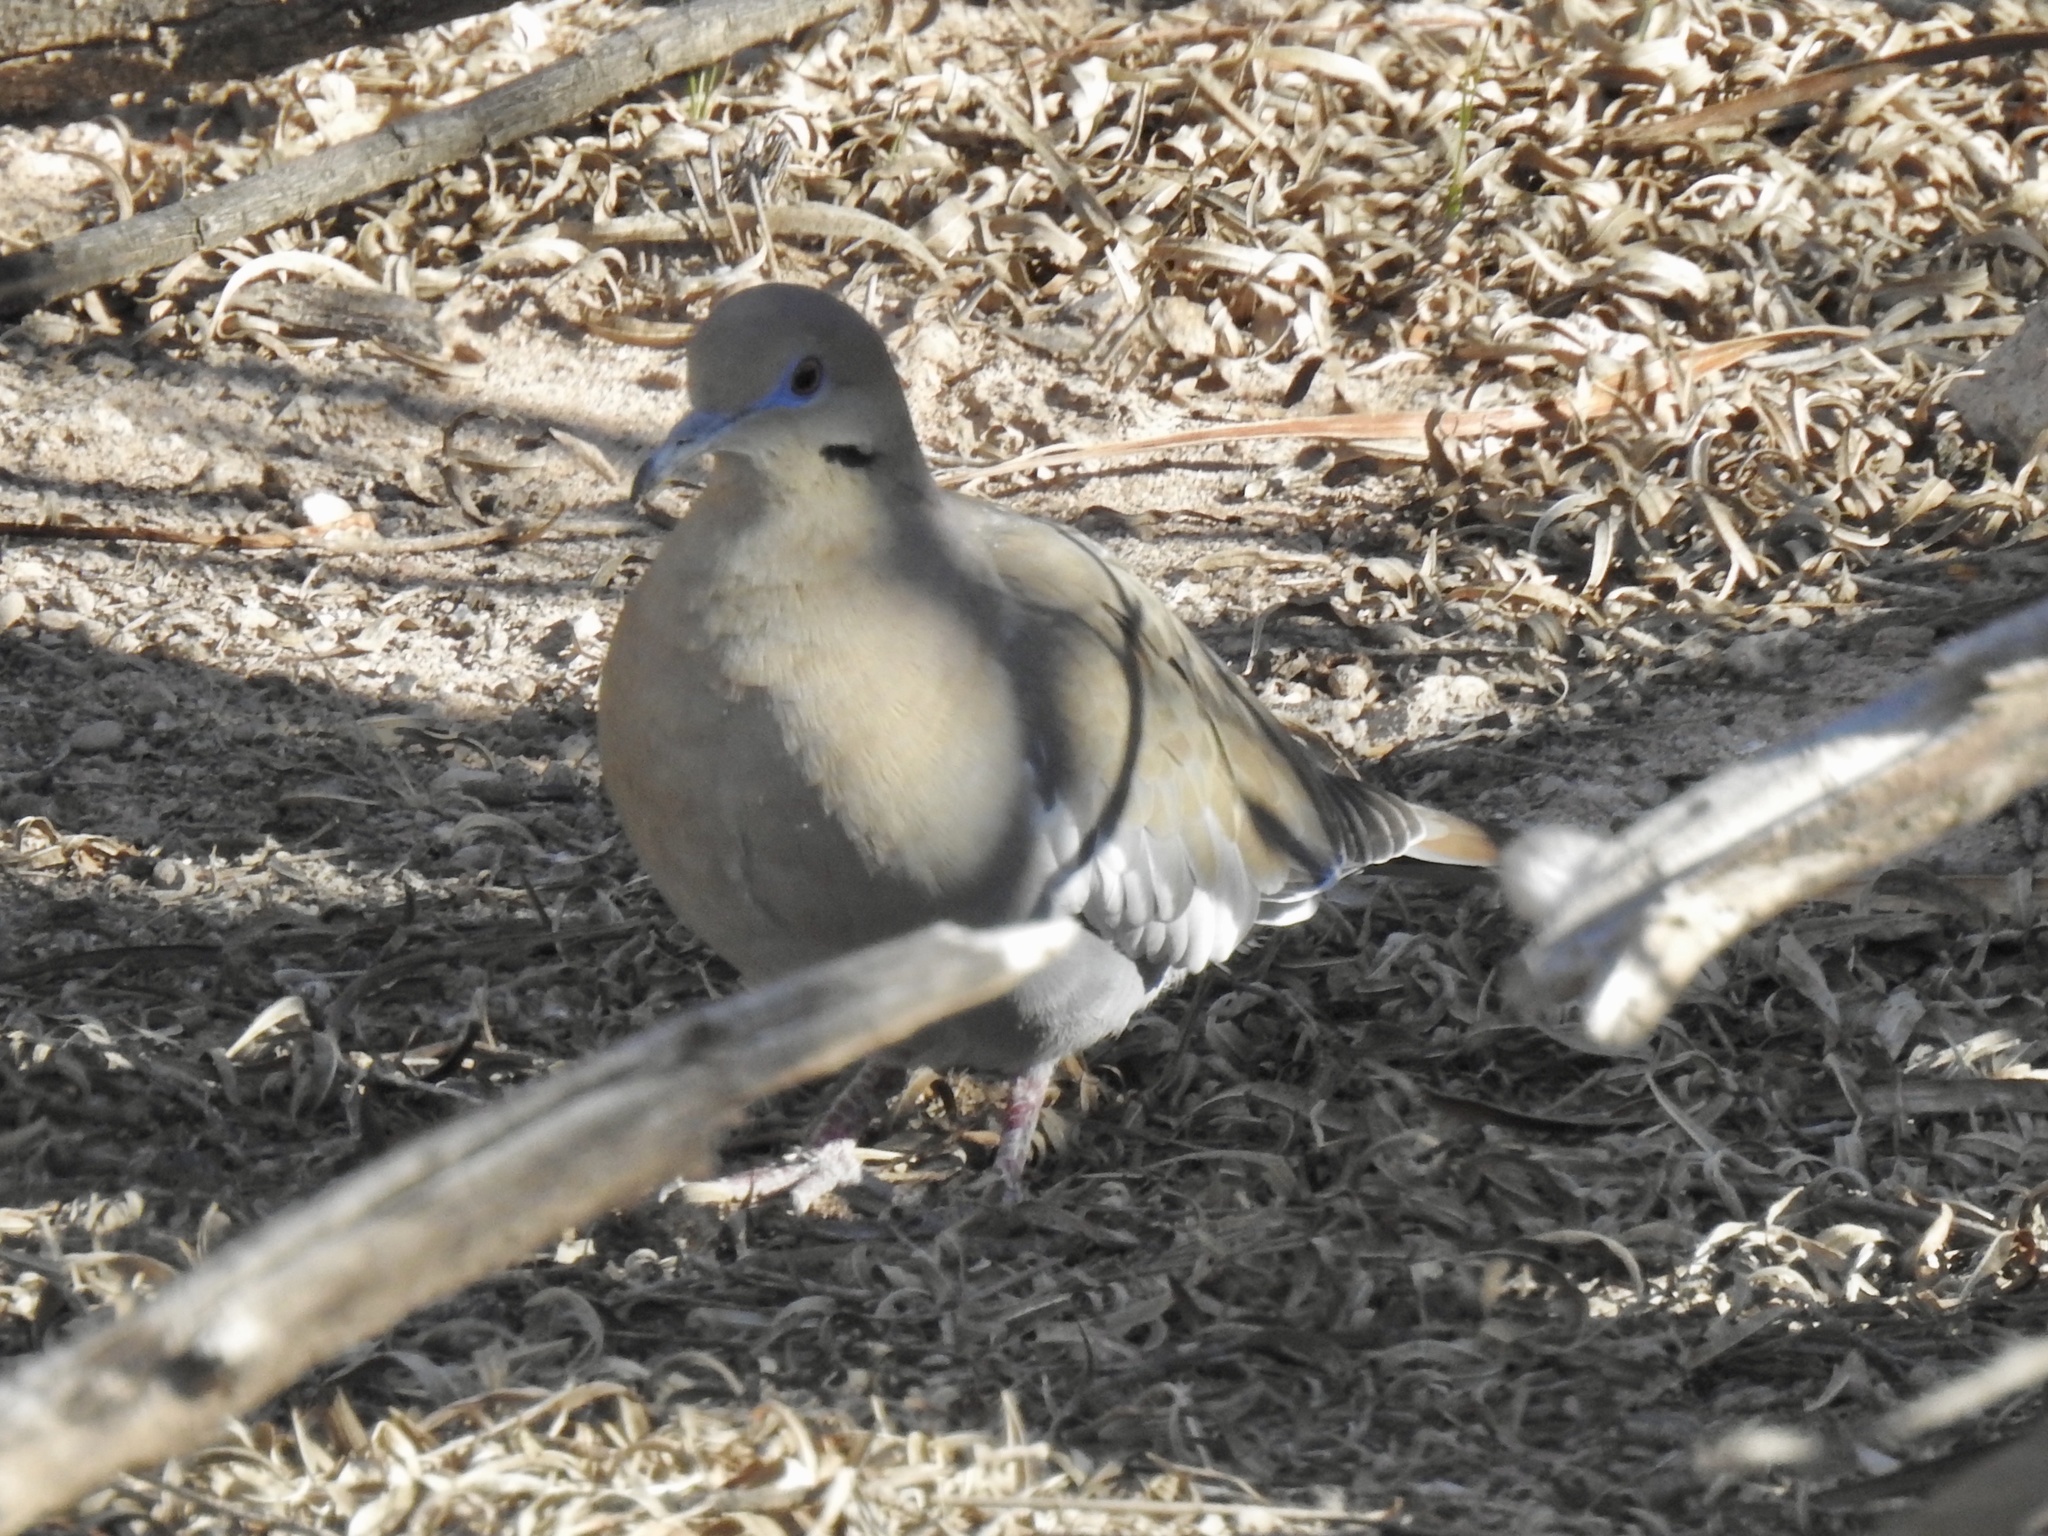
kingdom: Animalia
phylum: Chordata
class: Aves
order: Columbiformes
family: Columbidae
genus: Zenaida
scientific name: Zenaida asiatica
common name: White-winged dove
